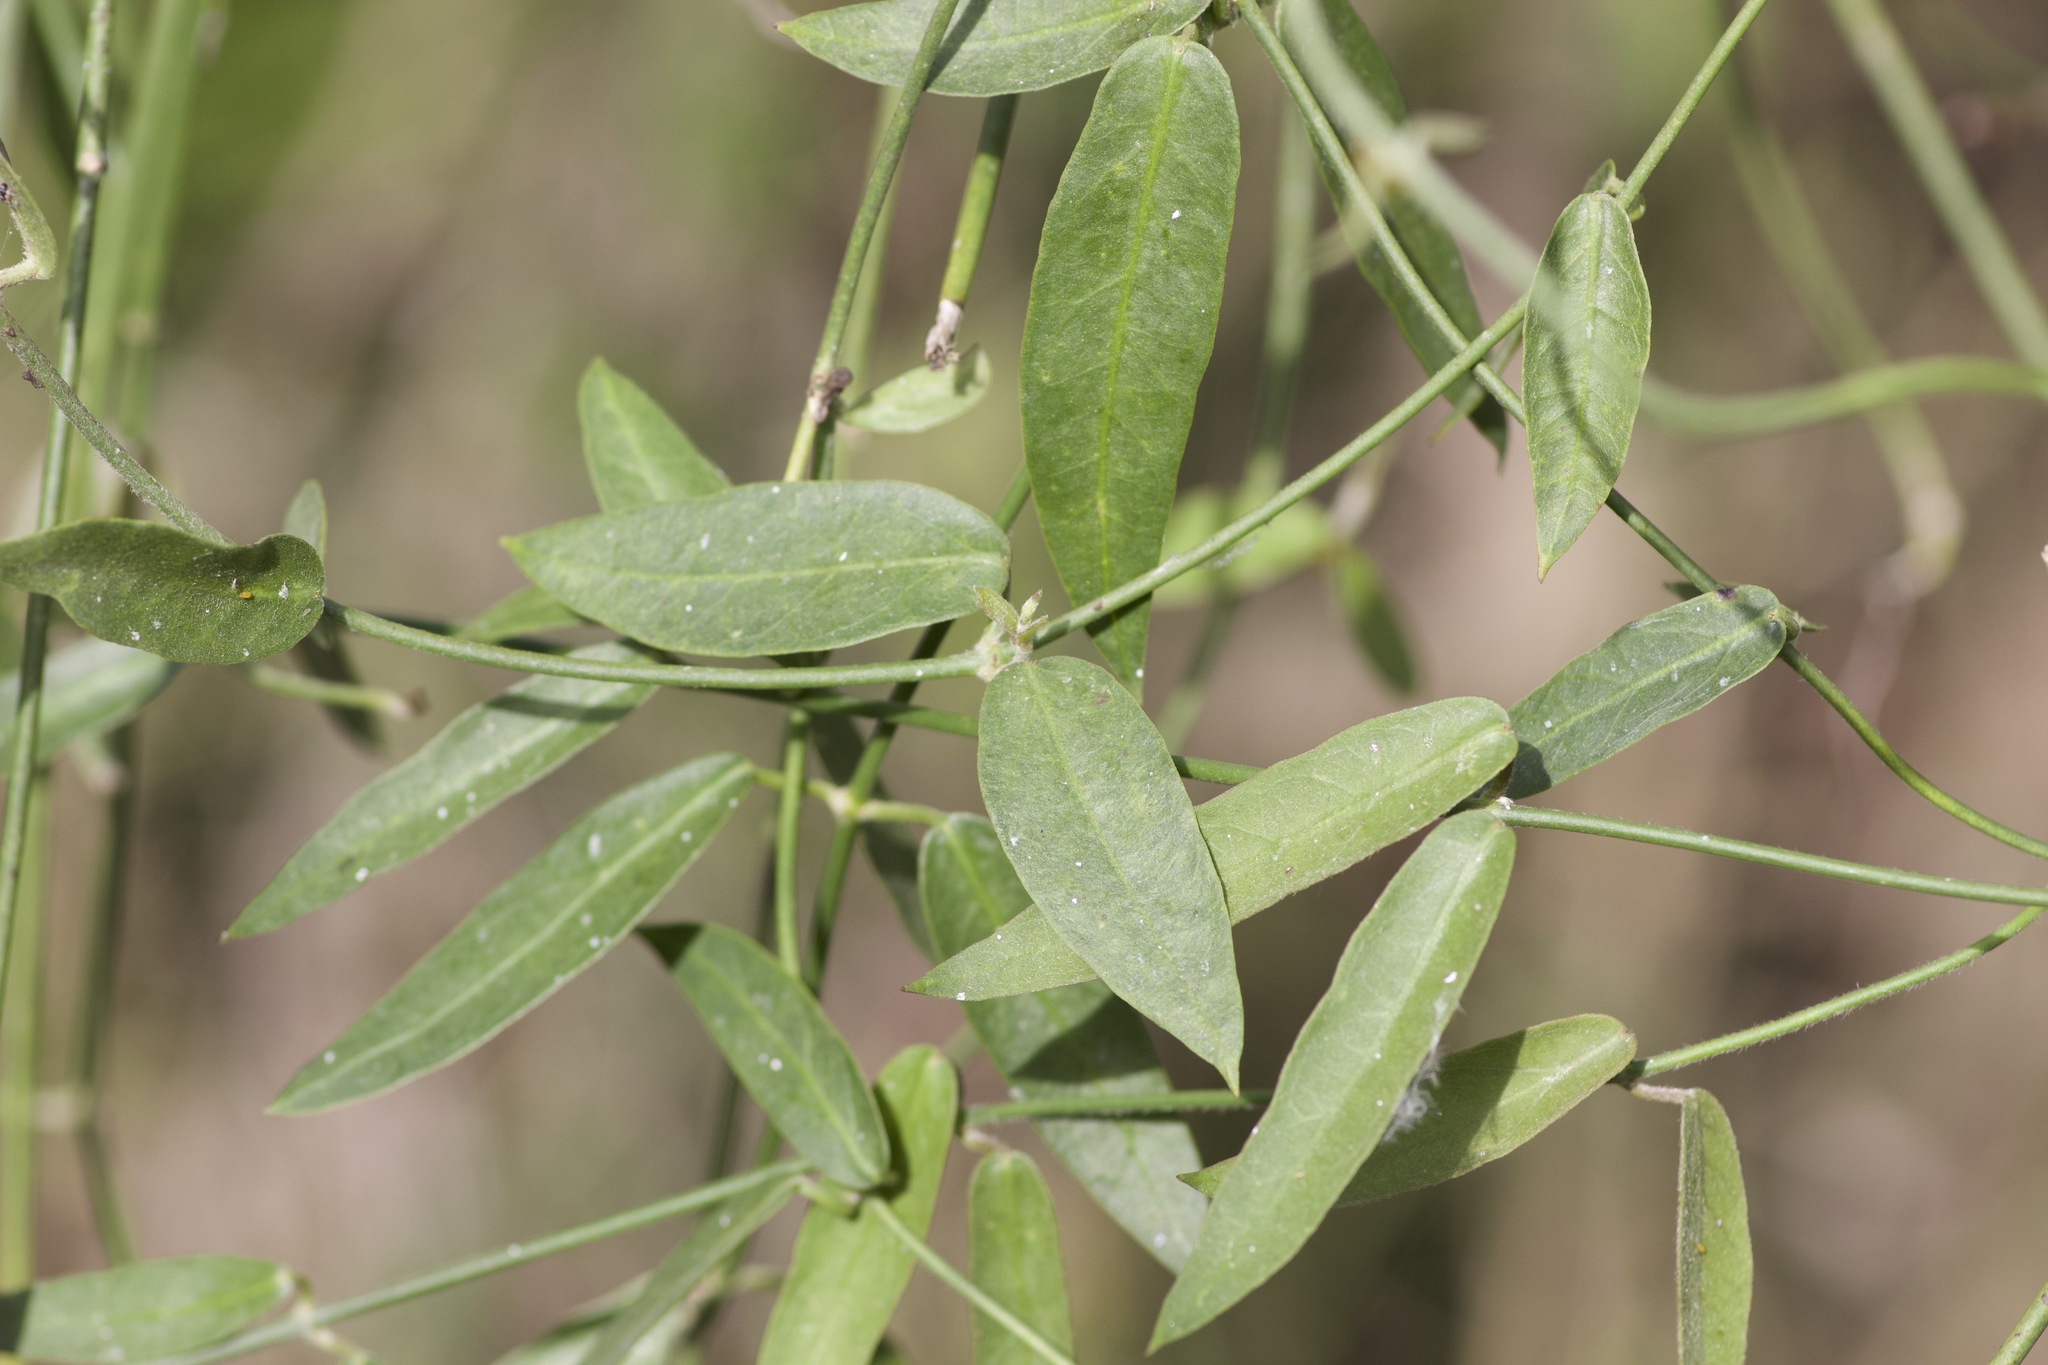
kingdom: Plantae
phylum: Tracheophyta
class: Magnoliopsida
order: Gentianales
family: Apocynaceae
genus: Funastrum
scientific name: Funastrum clausum
